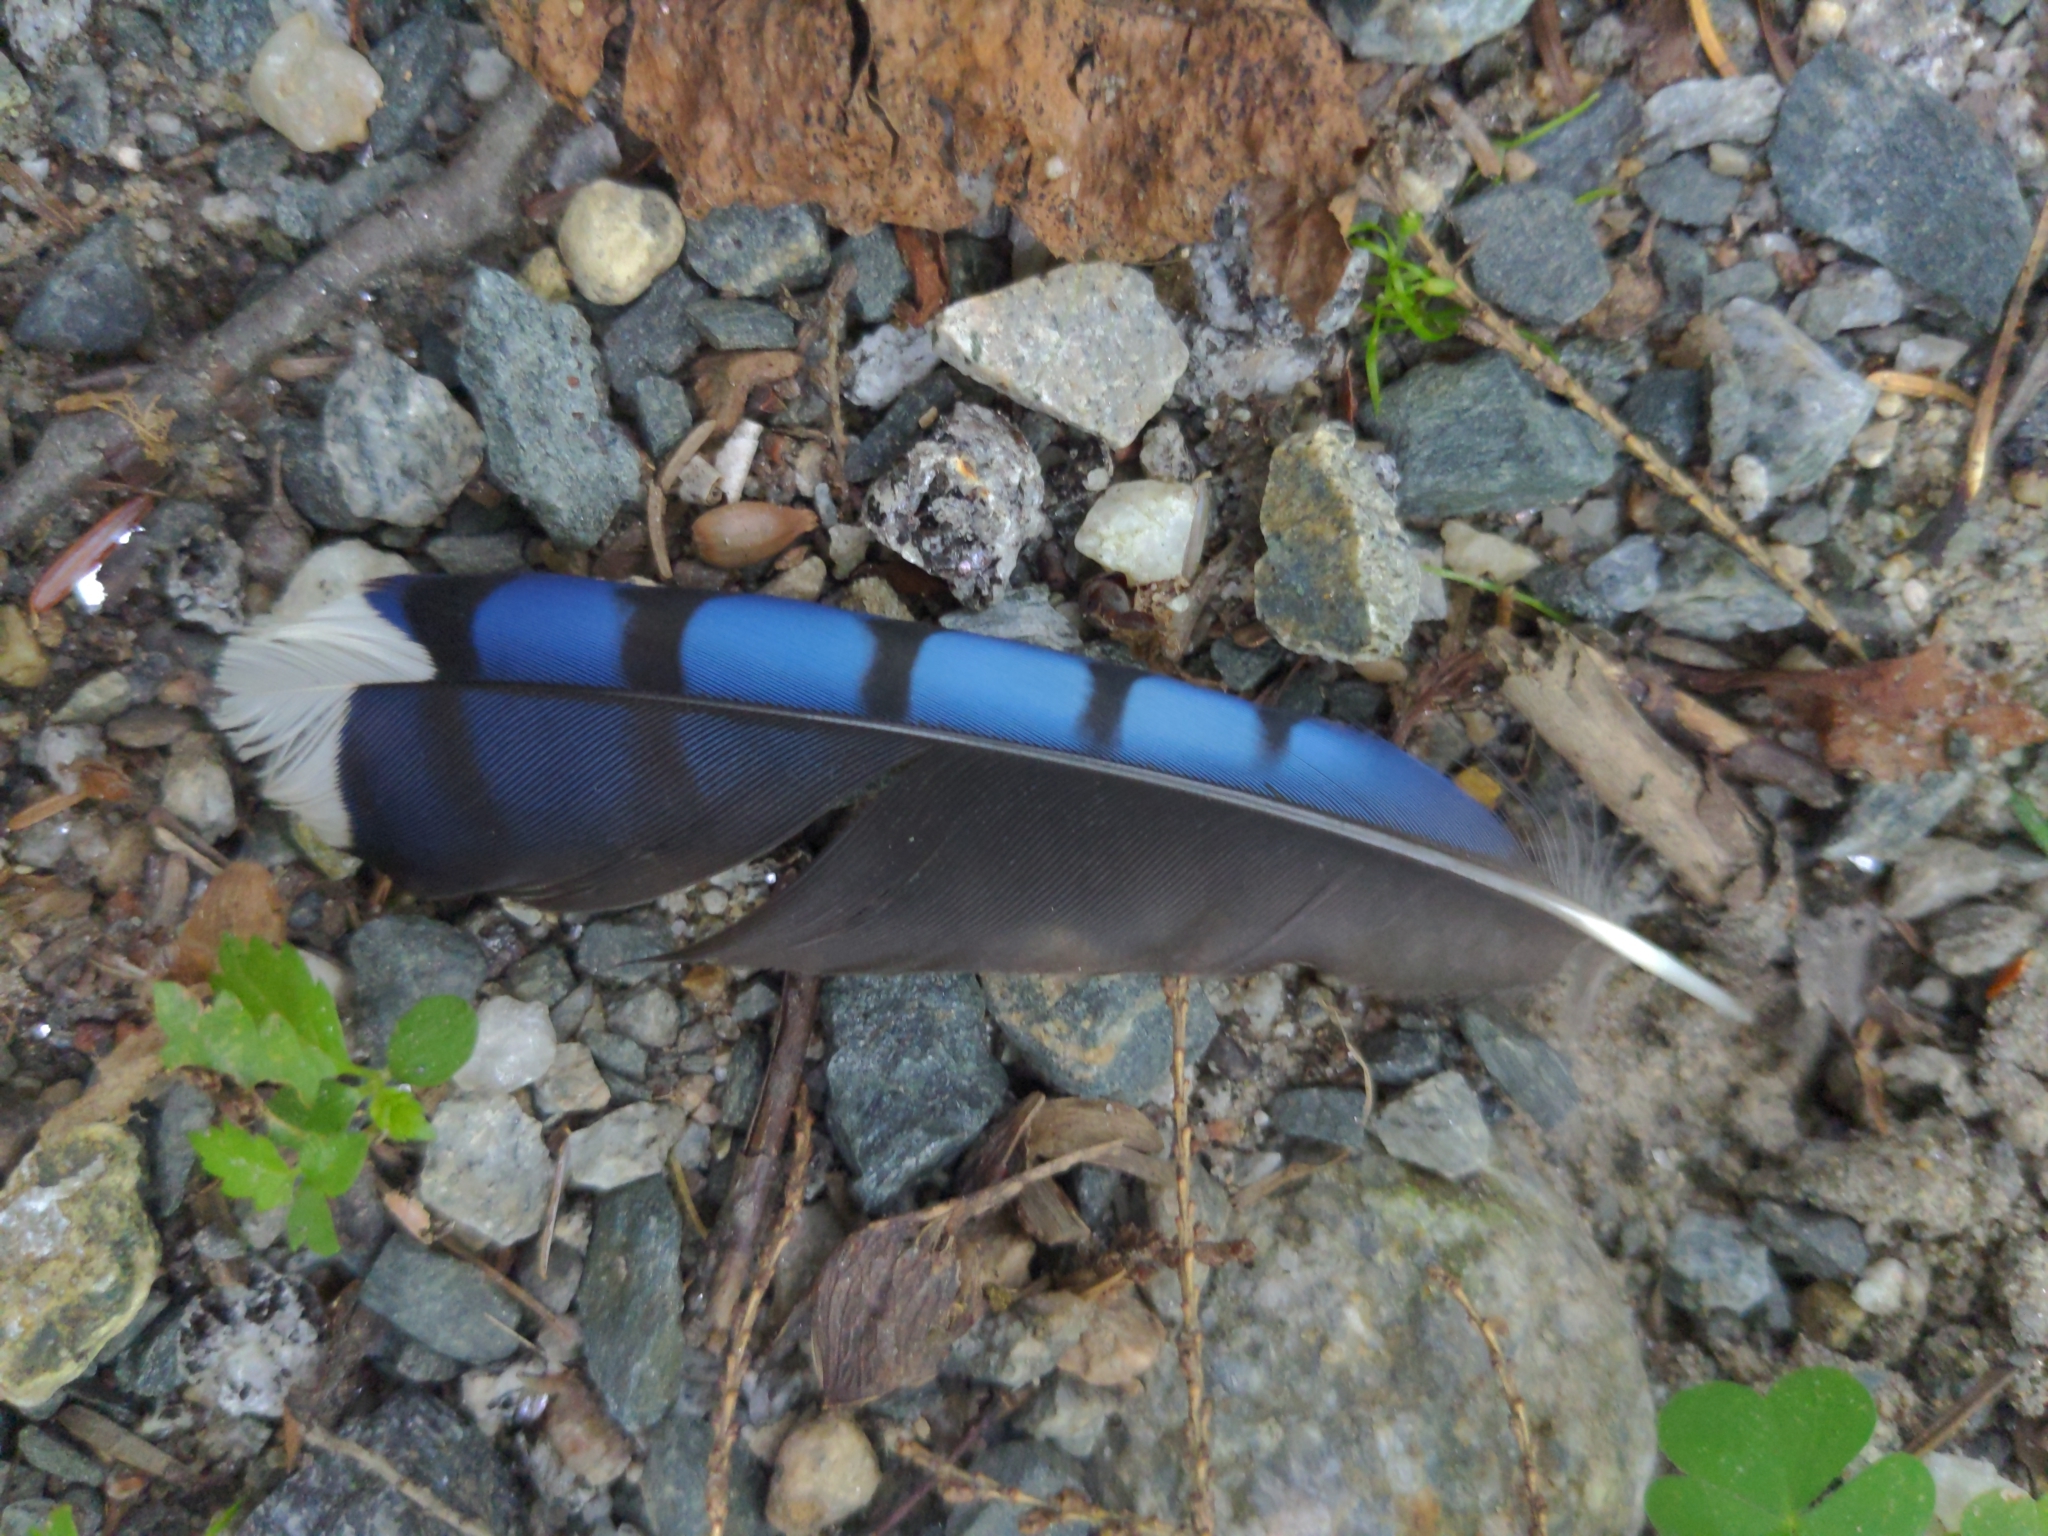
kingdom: Animalia
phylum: Chordata
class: Aves
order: Passeriformes
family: Corvidae
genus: Cyanocitta
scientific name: Cyanocitta cristata
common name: Blue jay
